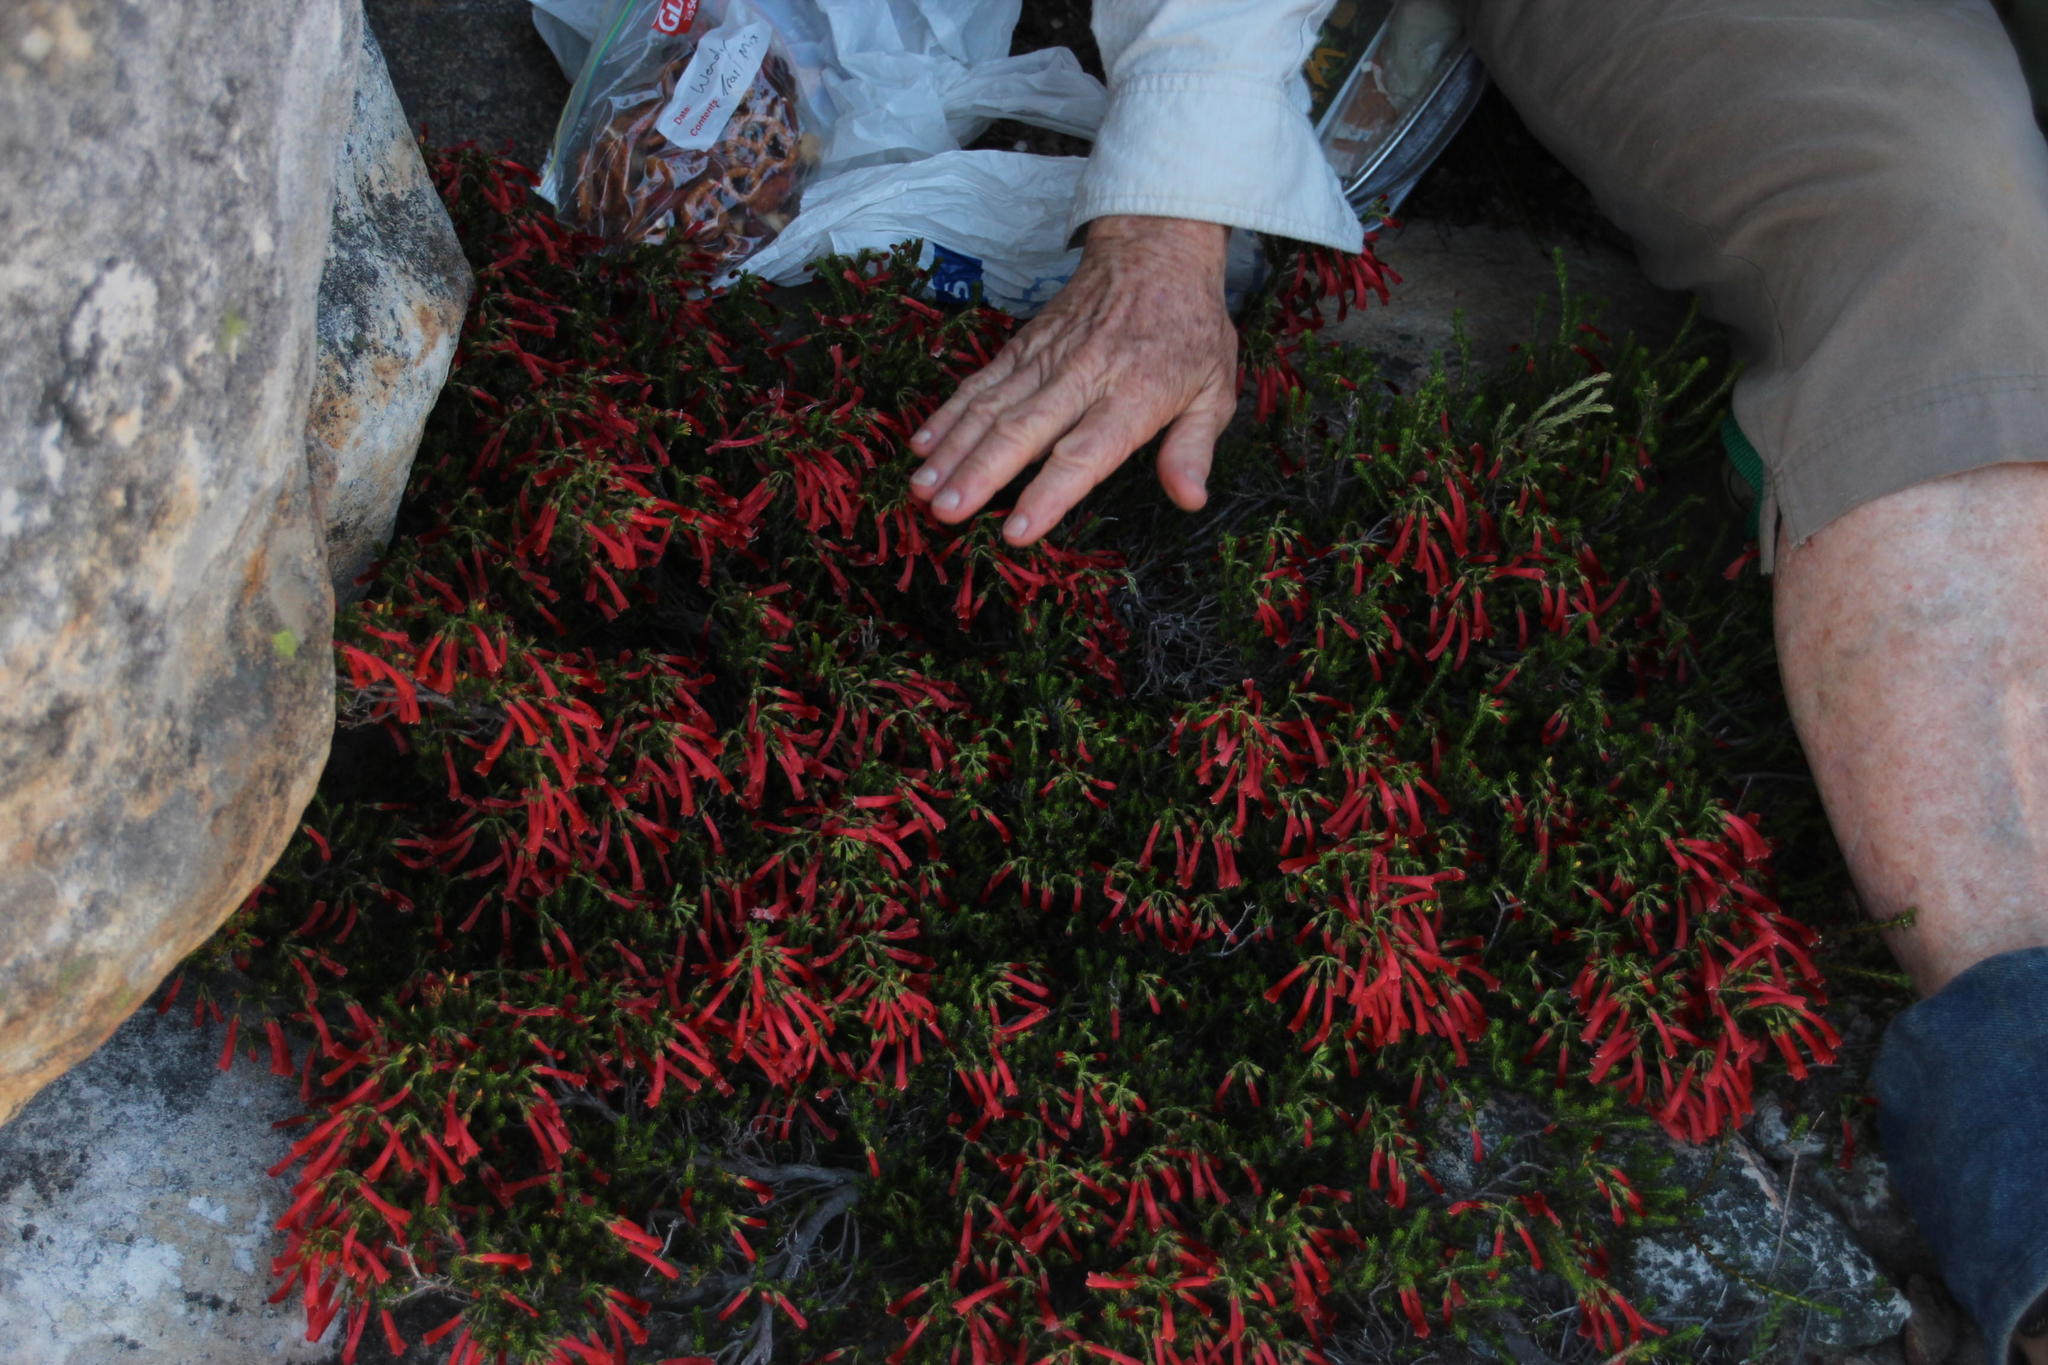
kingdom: Plantae
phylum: Tracheophyta
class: Magnoliopsida
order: Ericales
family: Ericaceae
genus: Erica
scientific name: Erica haematosiphon
